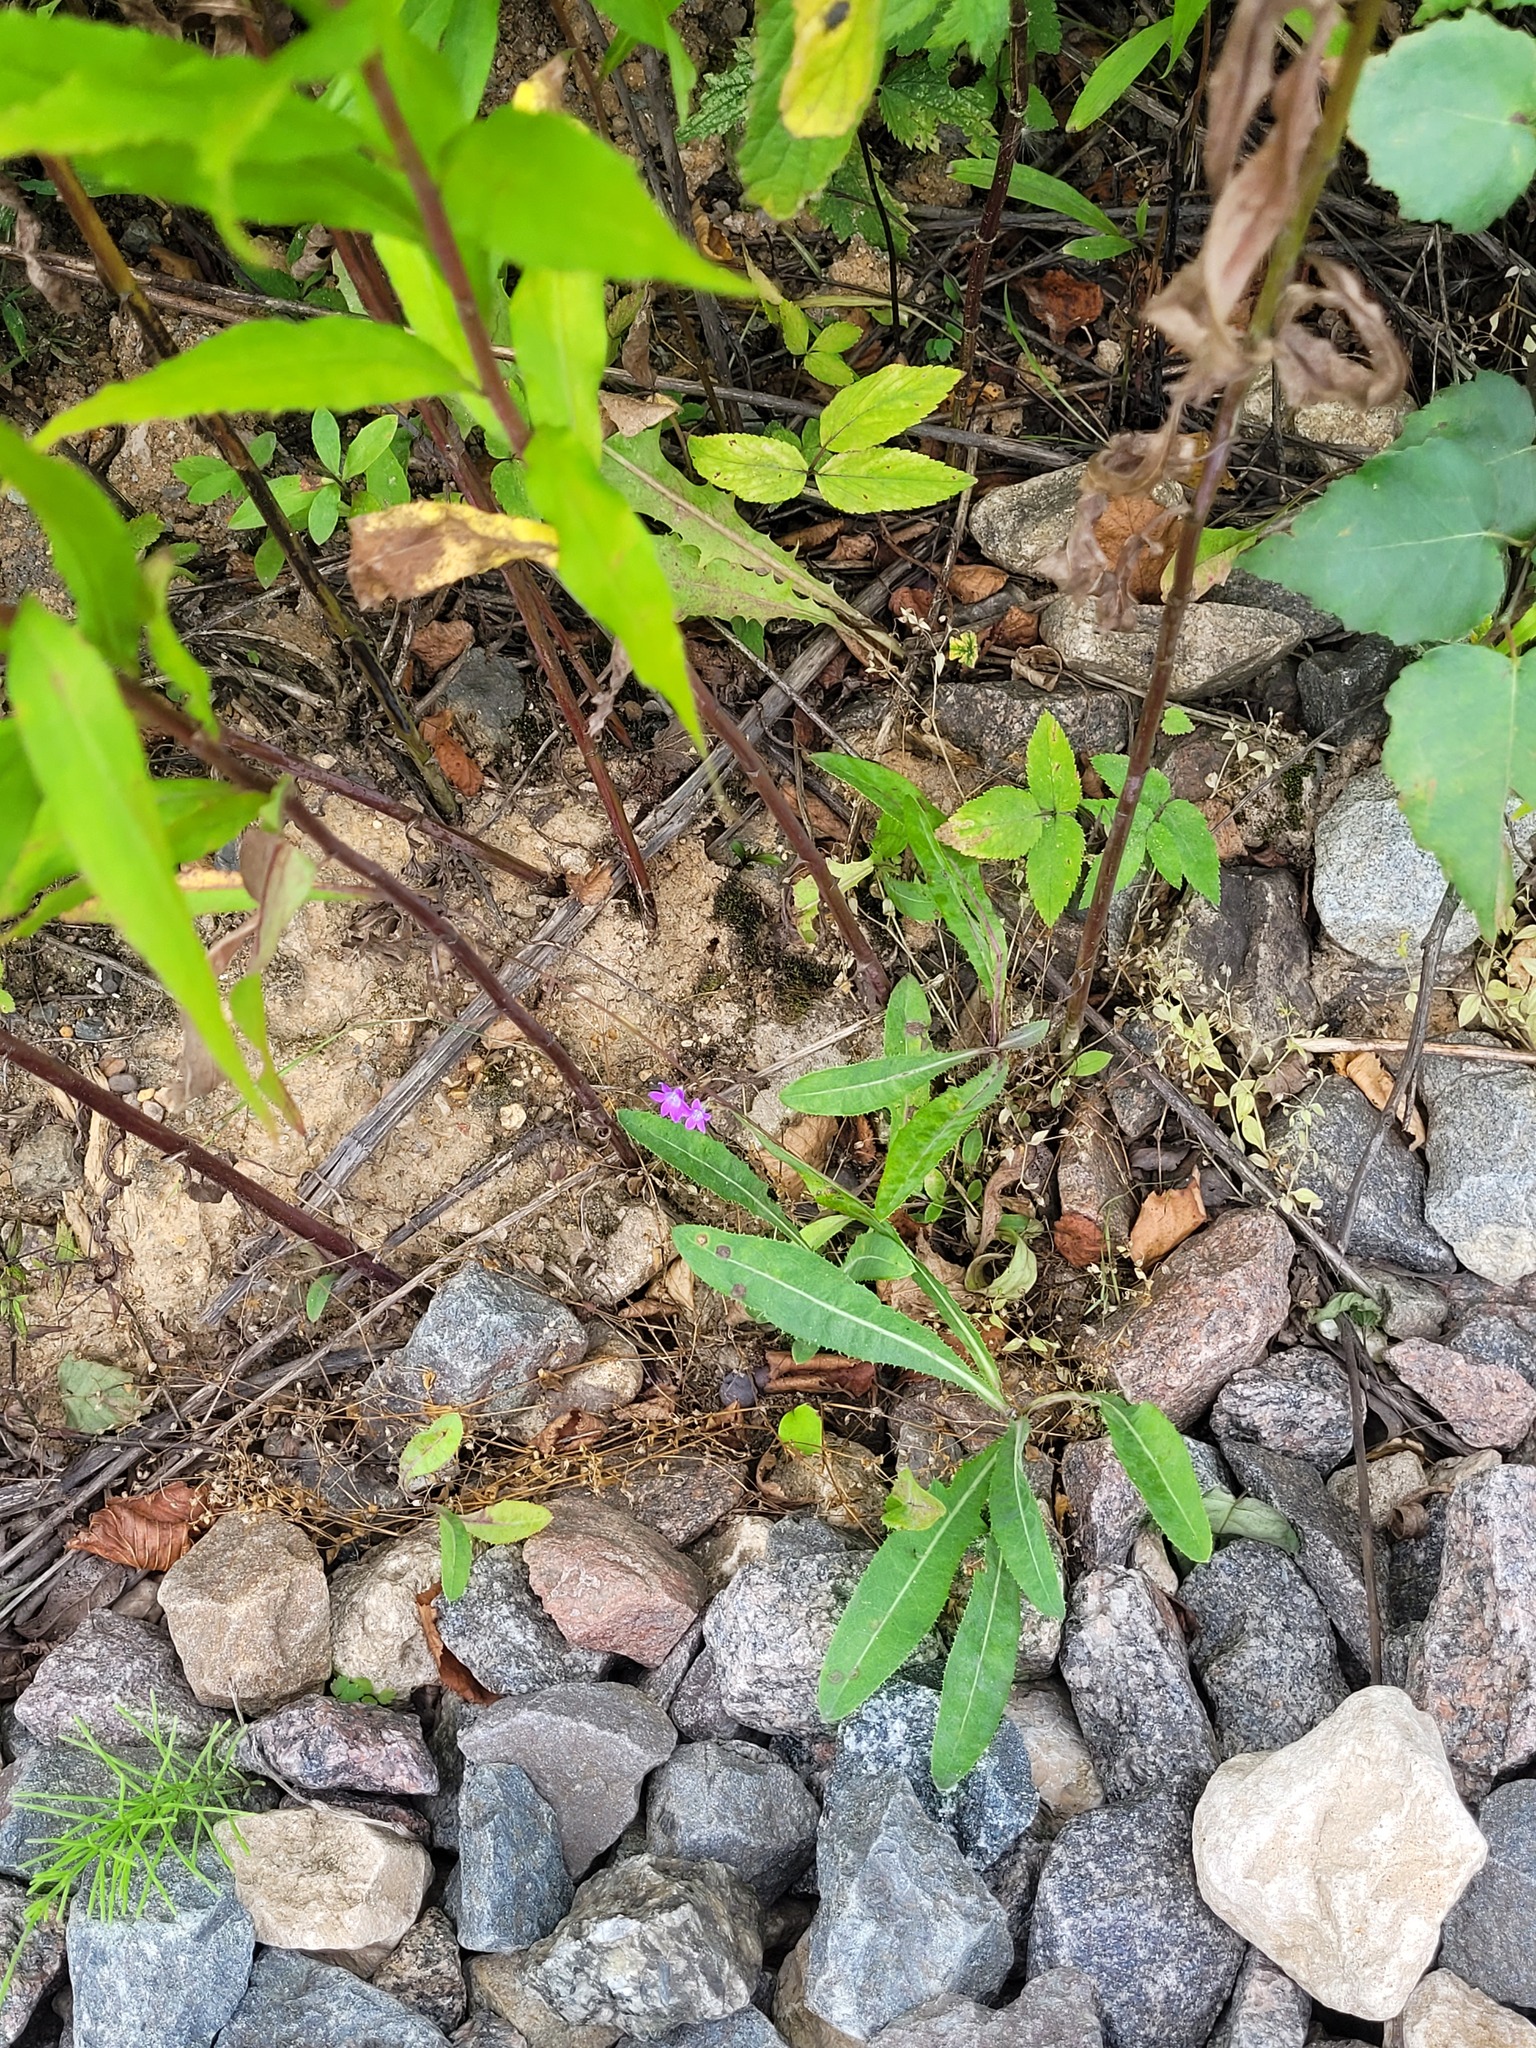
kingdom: Plantae
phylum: Tracheophyta
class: Magnoliopsida
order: Asterales
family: Campanulaceae
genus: Campanula
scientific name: Campanula patula
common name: Spreading bellflower
